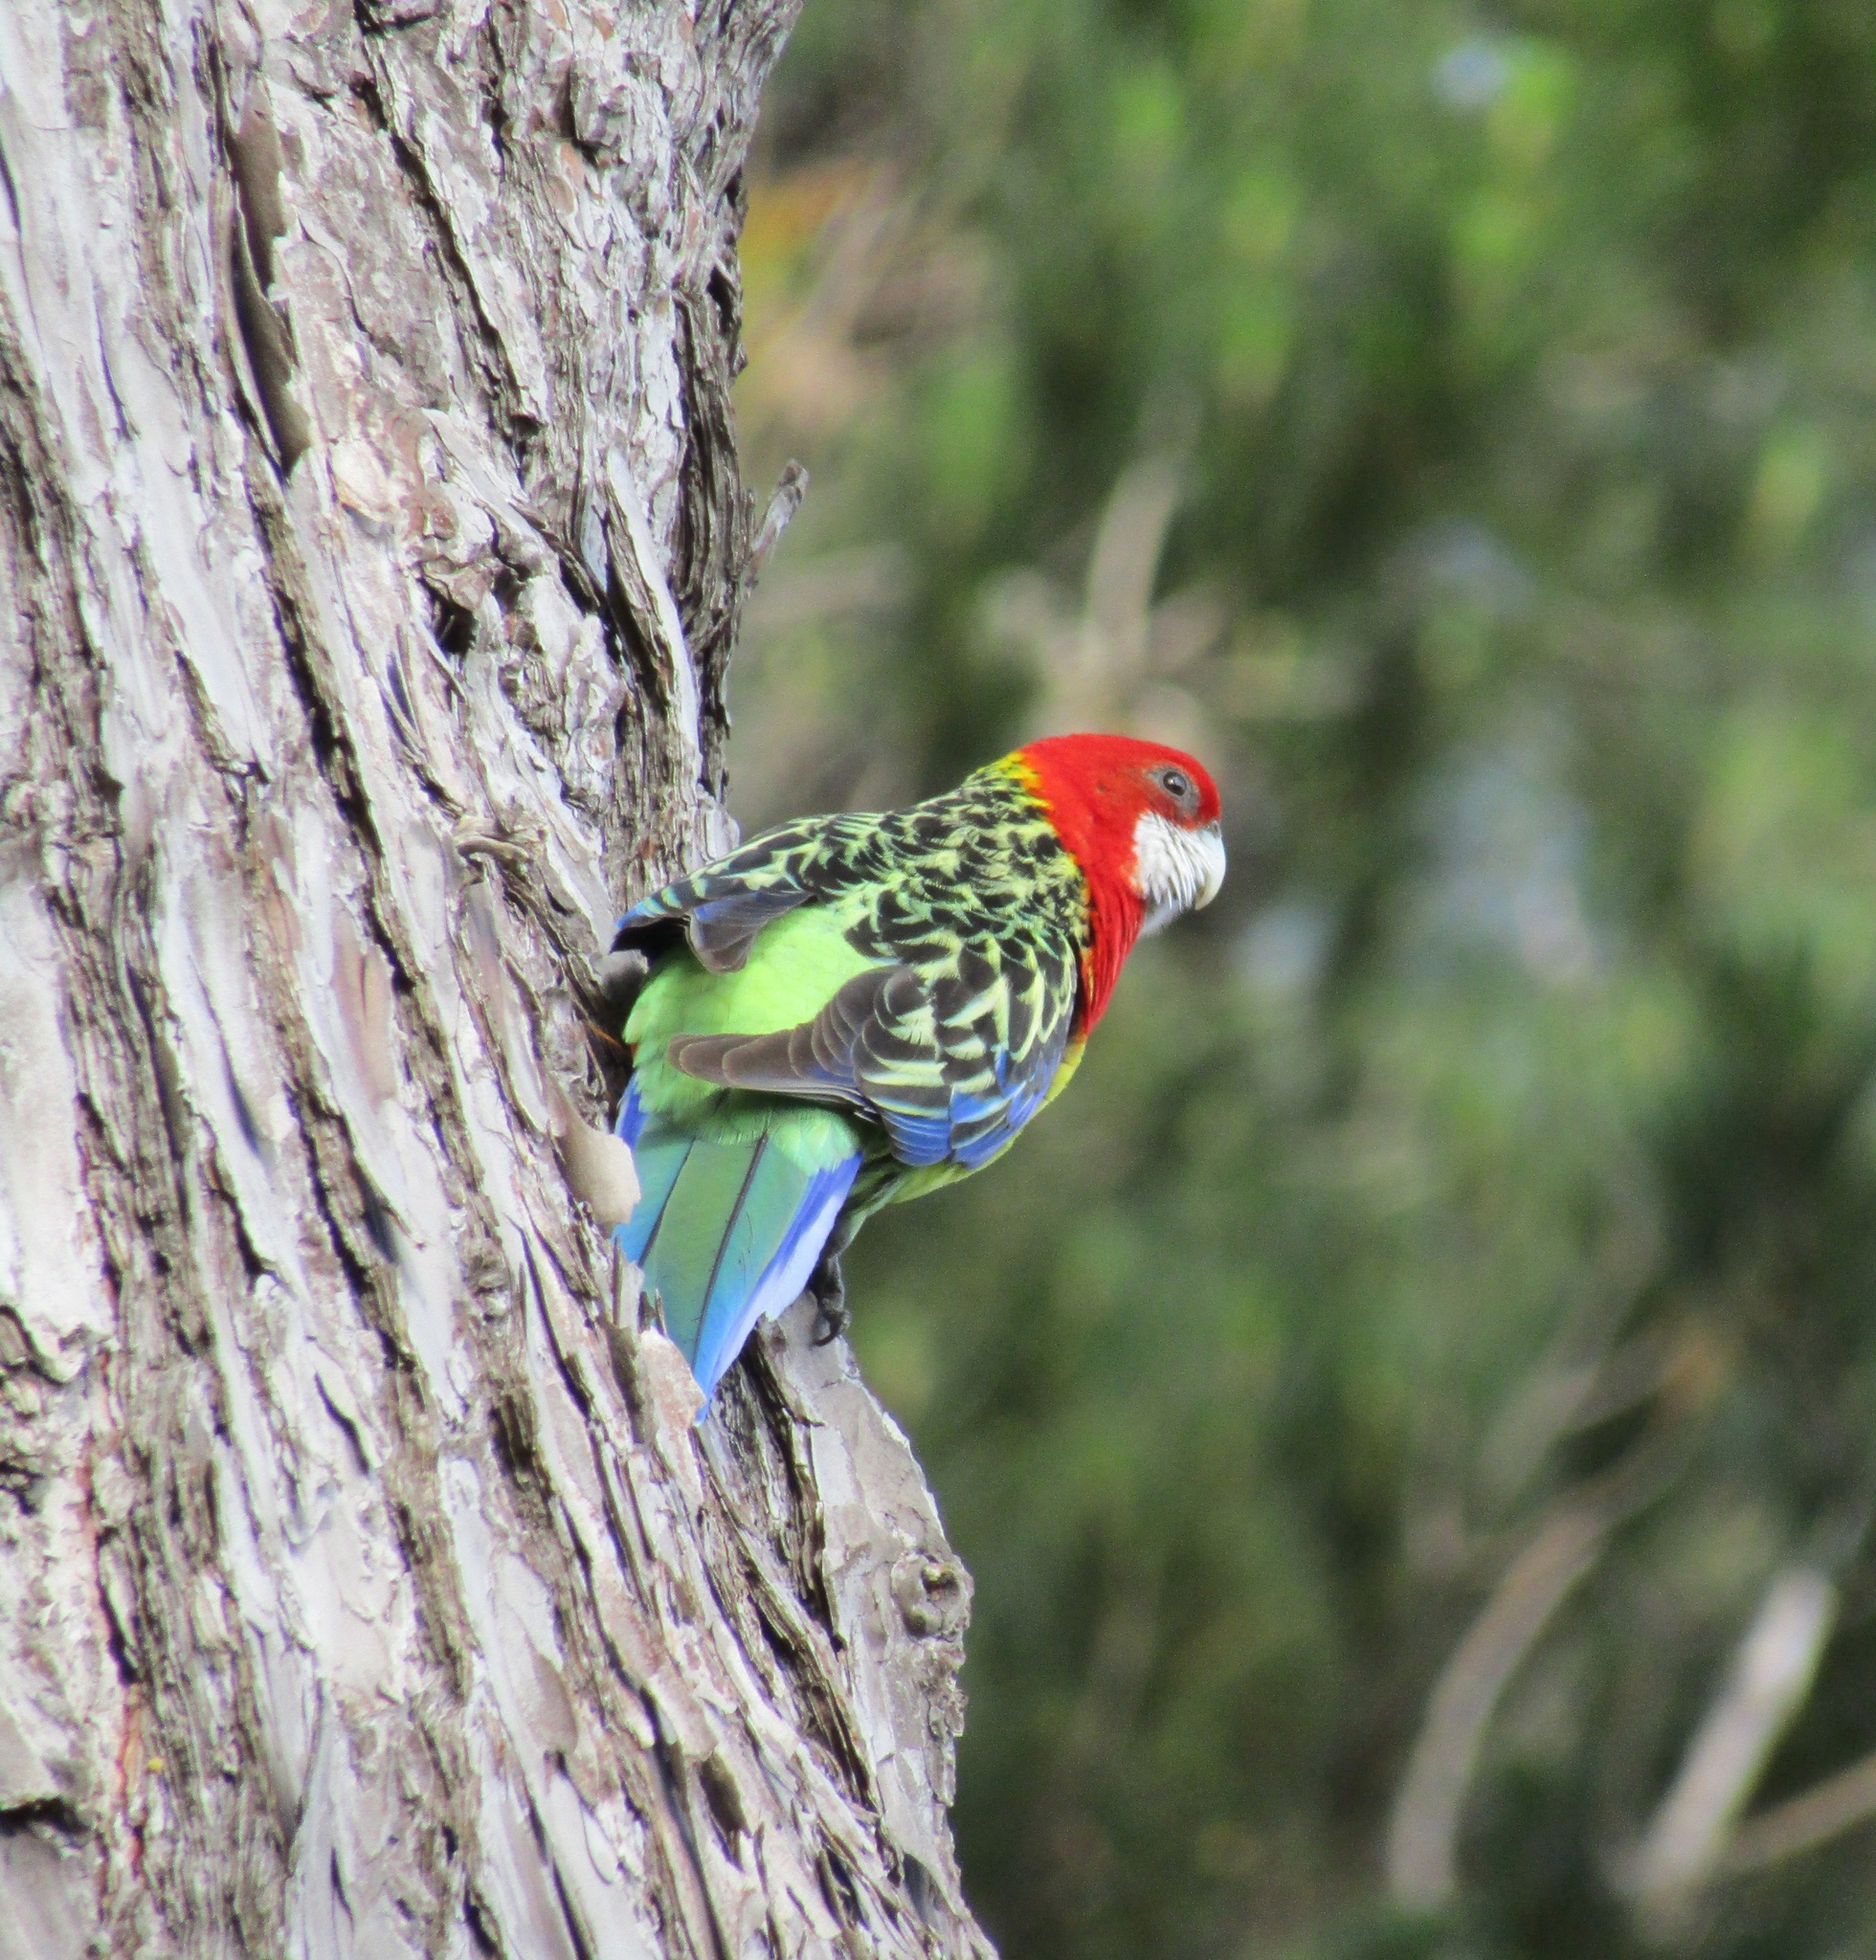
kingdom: Animalia
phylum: Chordata
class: Aves
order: Psittaciformes
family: Psittacidae
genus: Platycercus
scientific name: Platycercus eximius
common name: Eastern rosella
